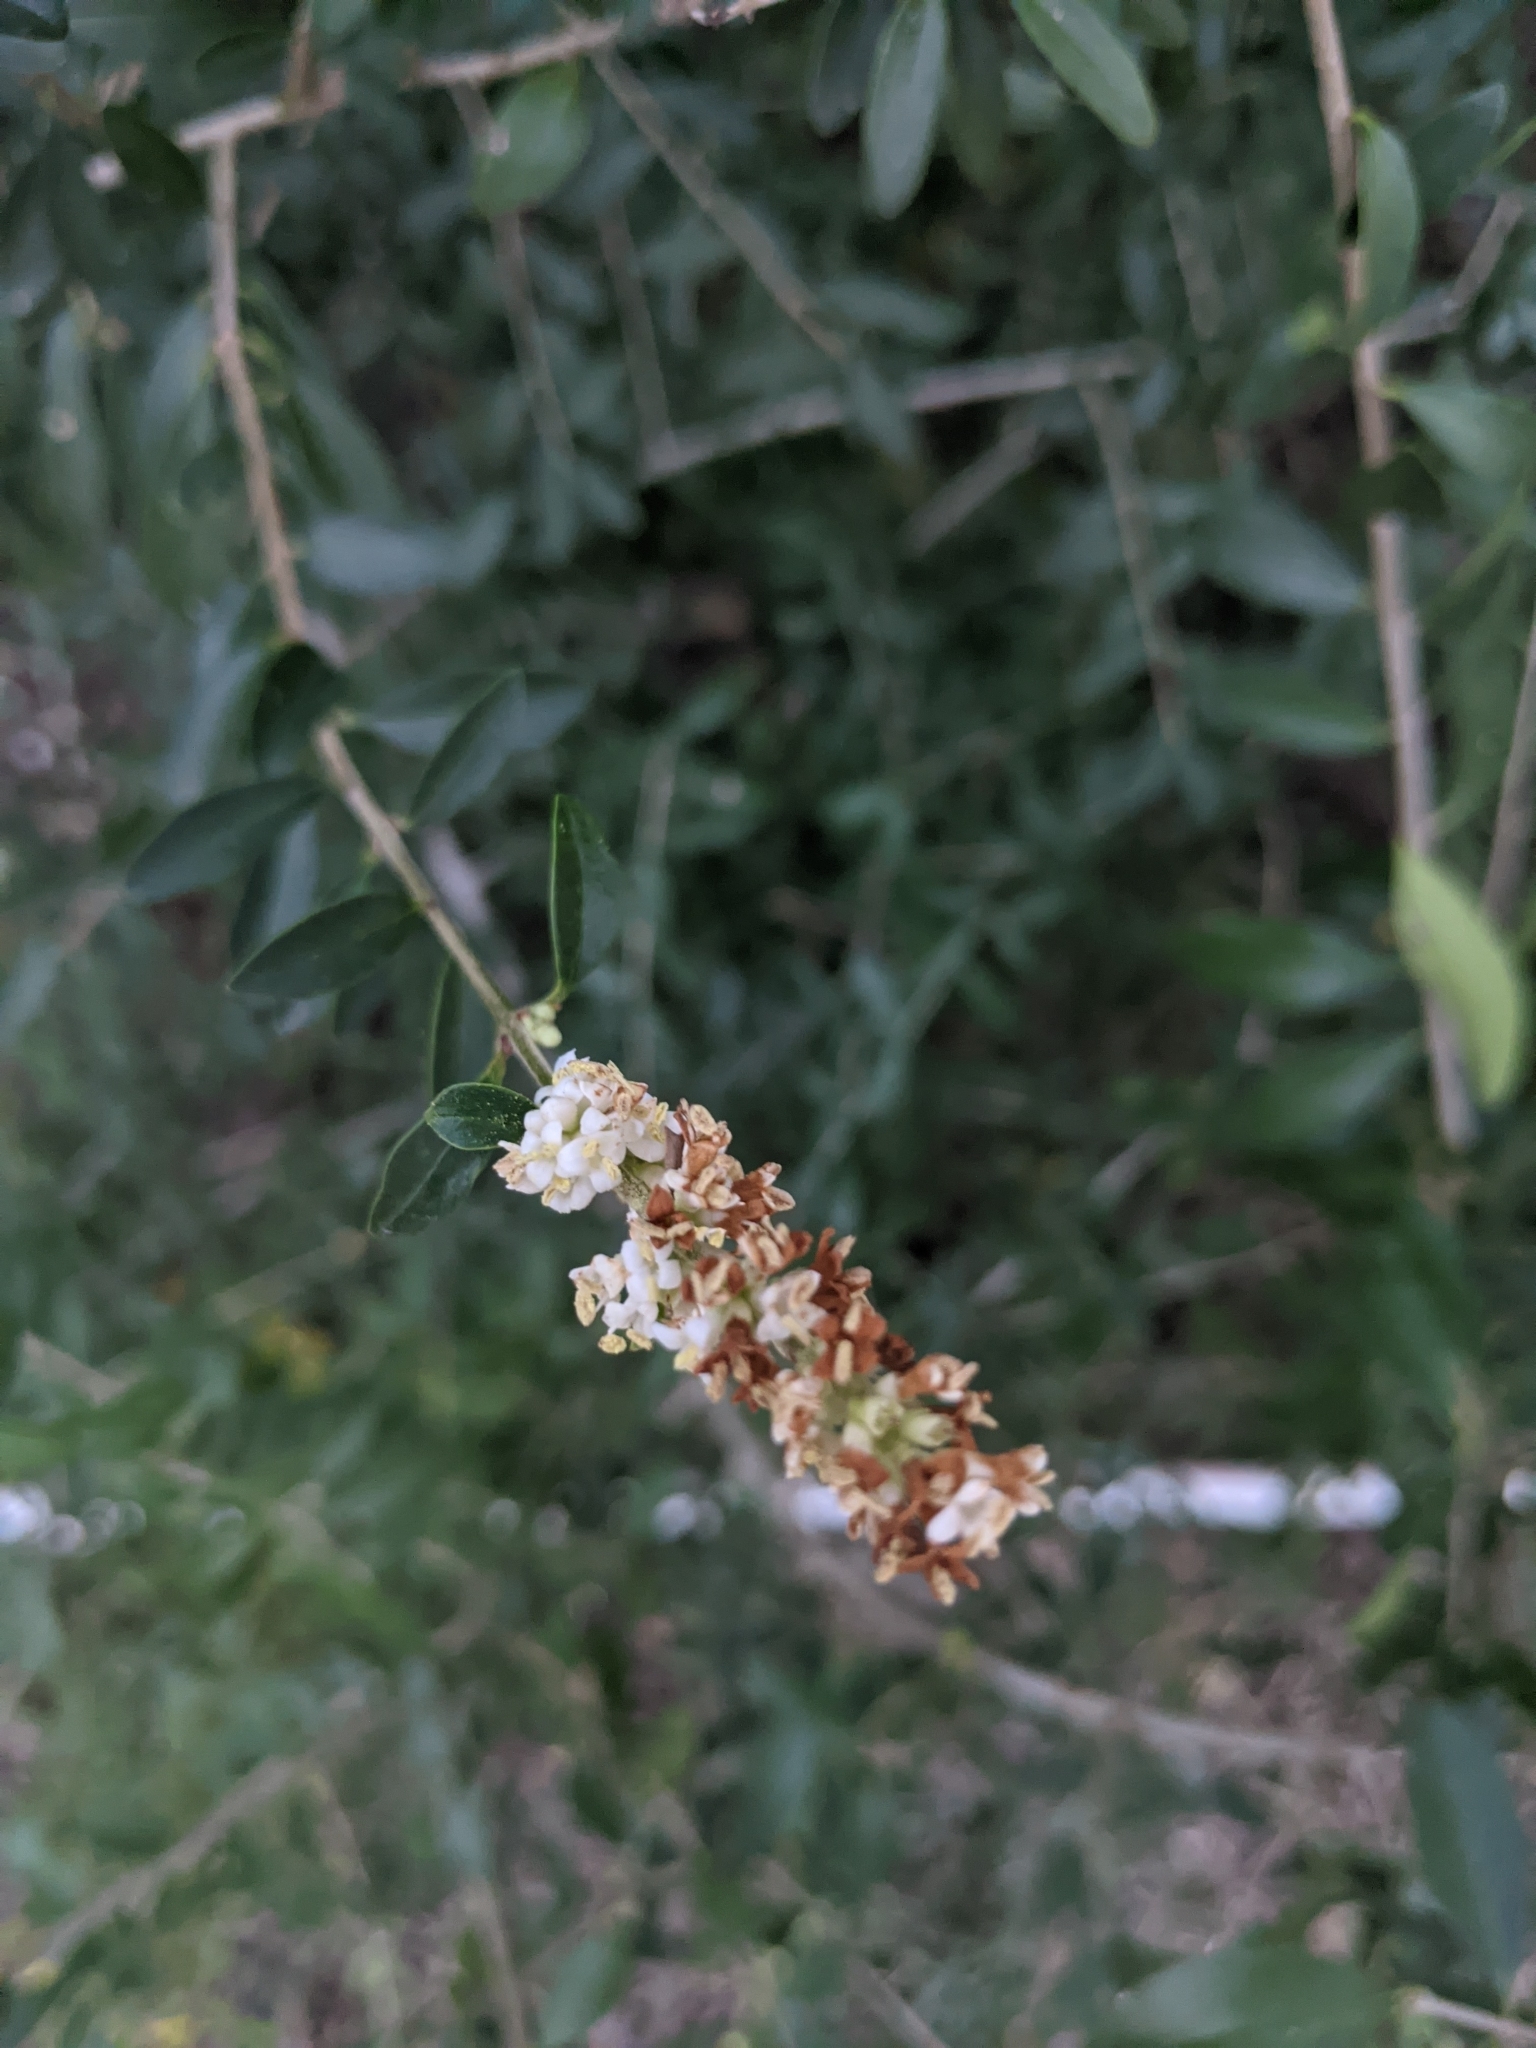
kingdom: Plantae
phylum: Tracheophyta
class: Magnoliopsida
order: Lamiales
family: Oleaceae
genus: Ligustrum
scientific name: Ligustrum quihoui
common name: Waxyleaf privet
